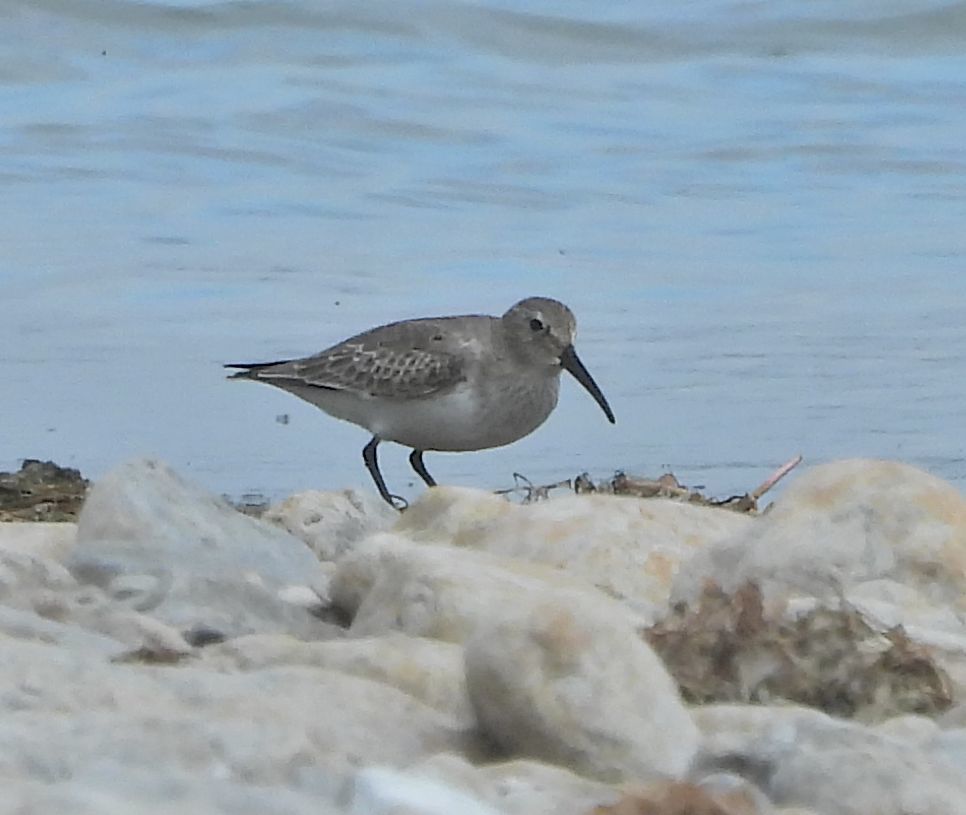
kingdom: Animalia
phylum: Chordata
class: Aves
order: Charadriiformes
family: Scolopacidae
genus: Calidris
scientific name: Calidris alpina
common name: Dunlin
